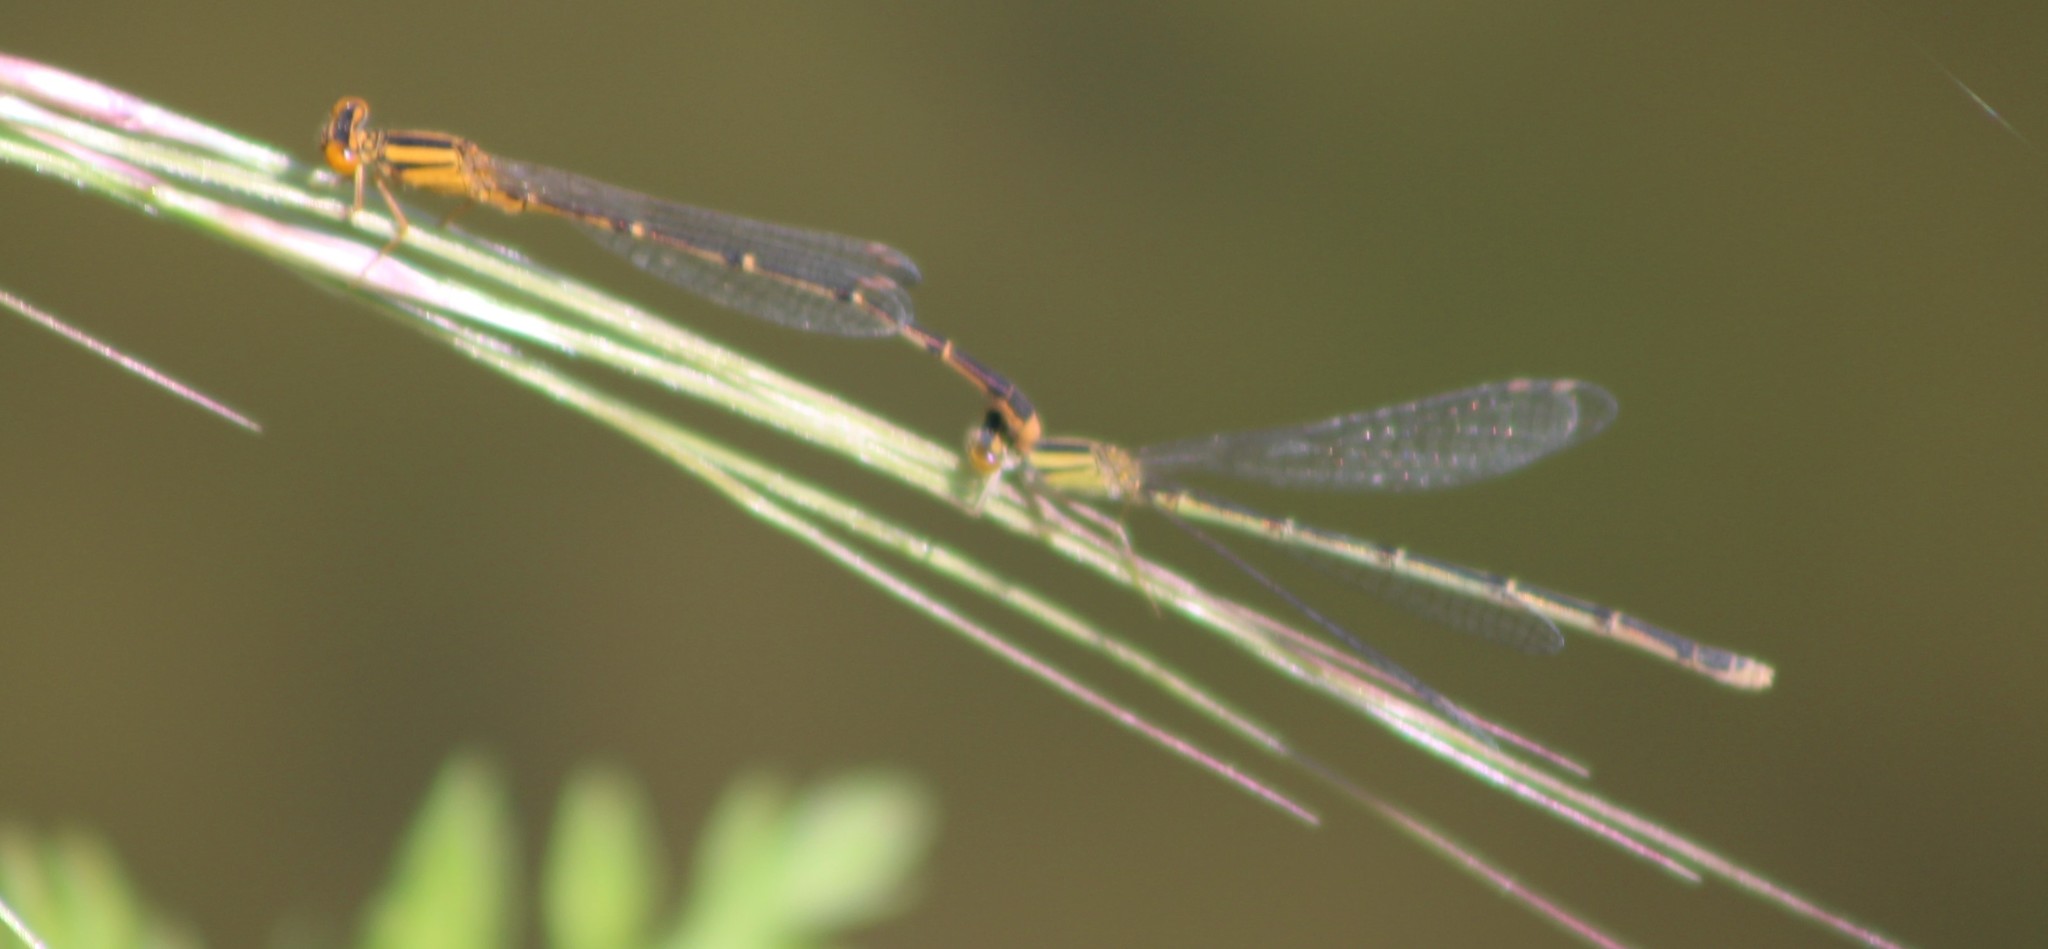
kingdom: Animalia
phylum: Arthropoda
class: Insecta
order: Odonata
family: Coenagrionidae
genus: Enallagma
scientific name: Enallagma signatum
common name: Orange bluet
